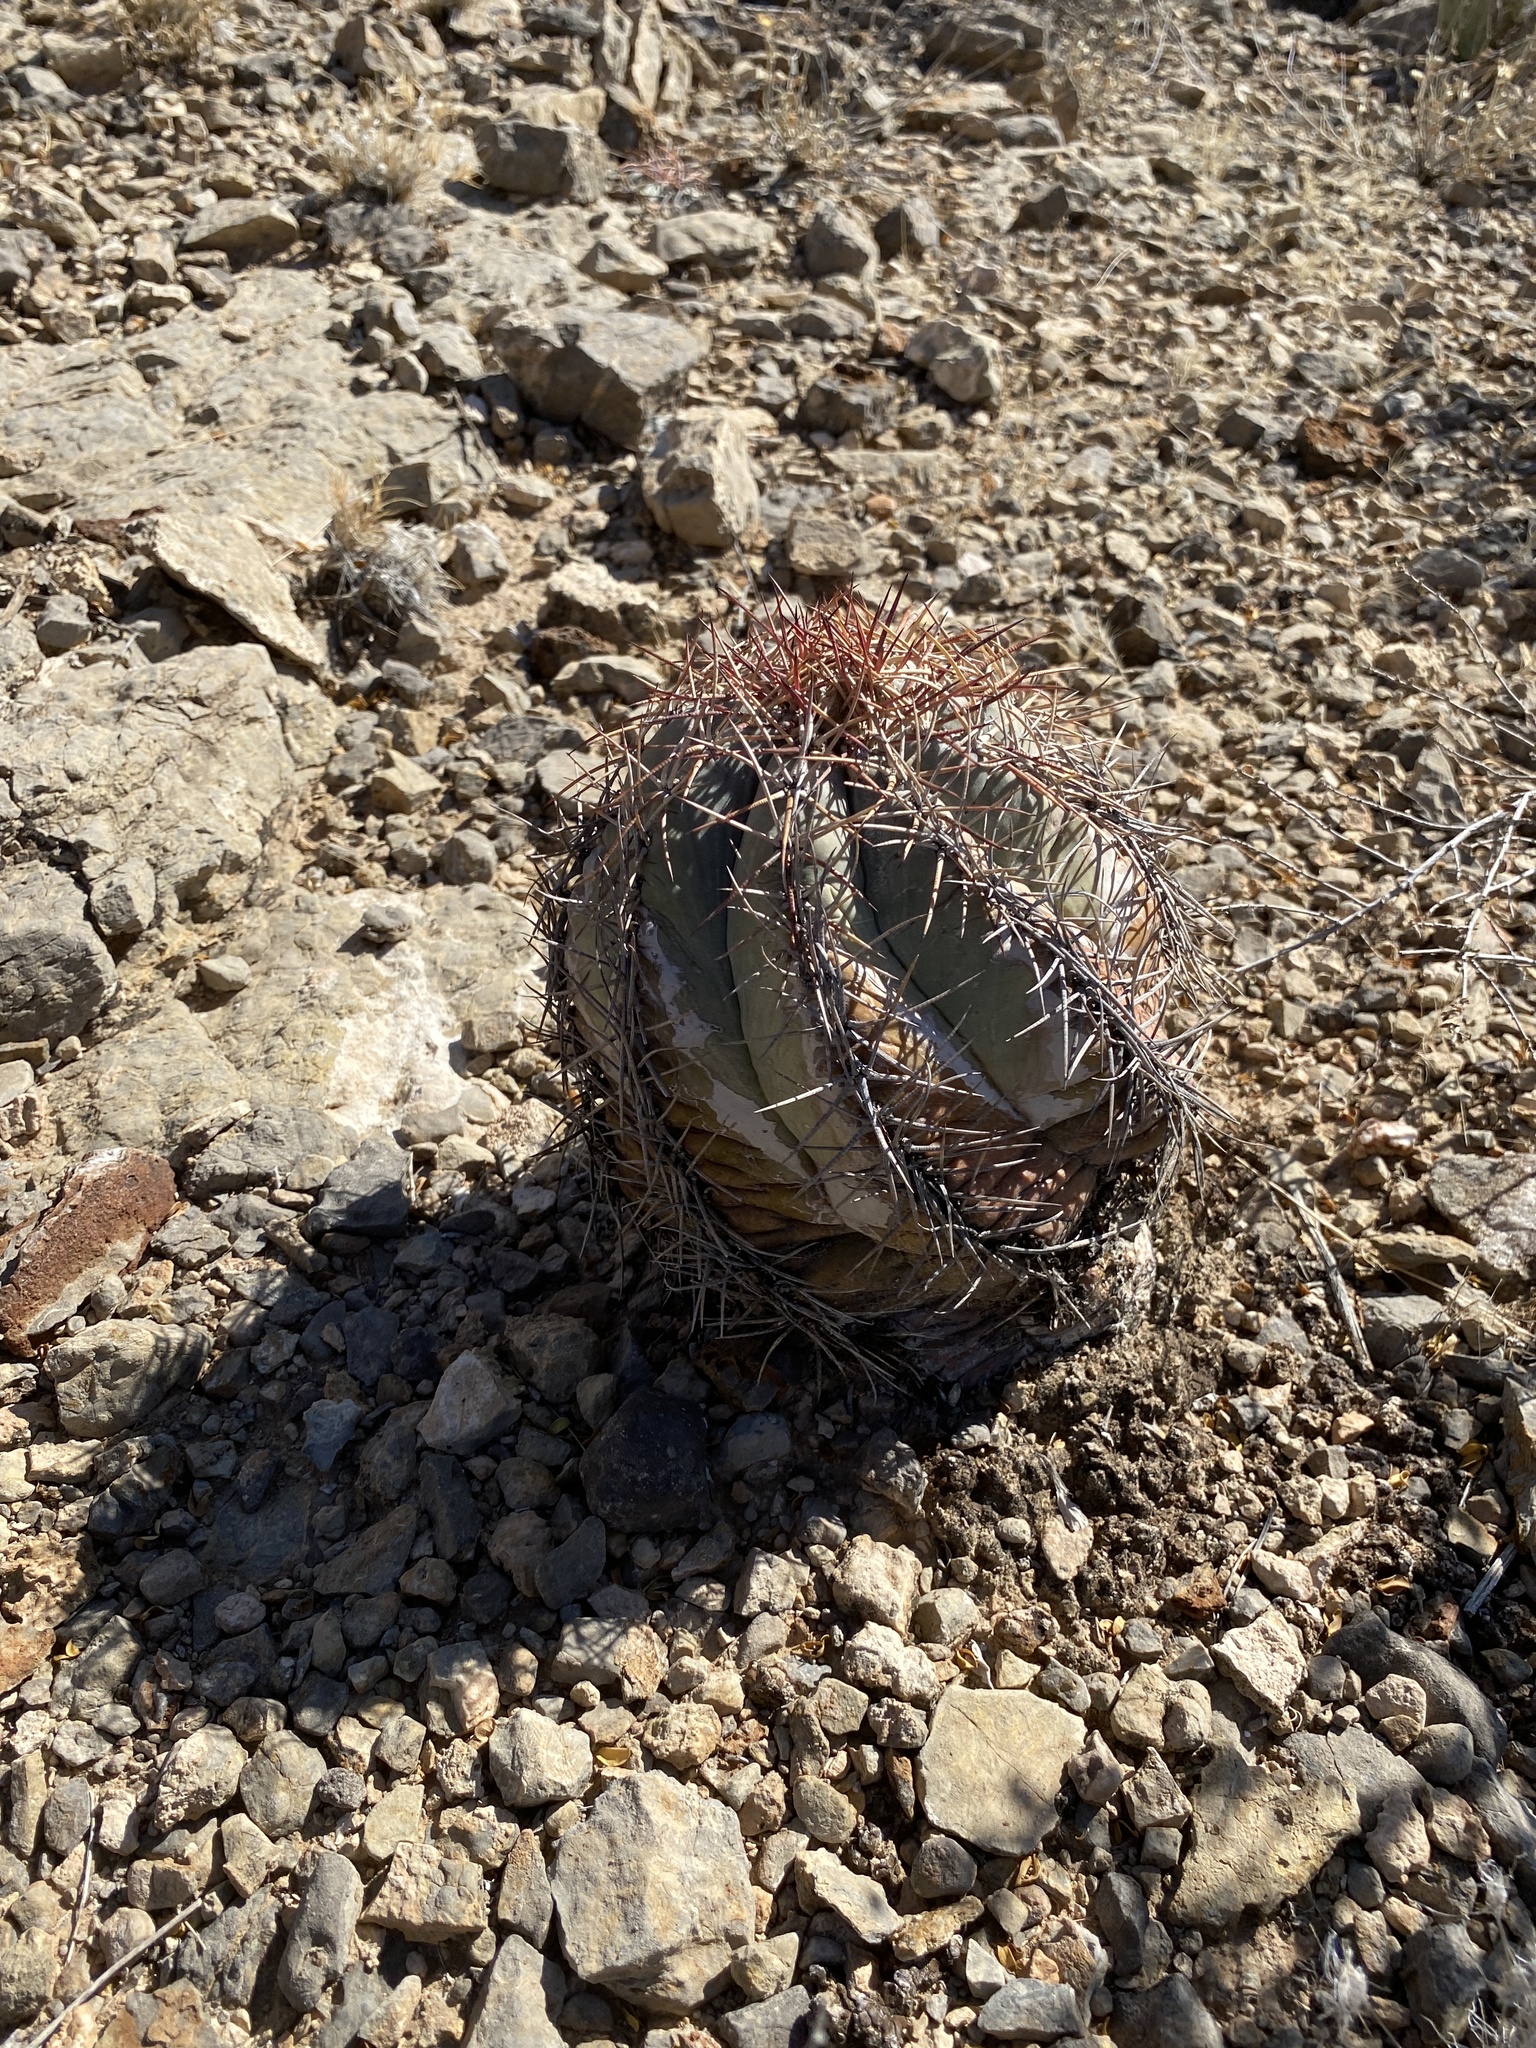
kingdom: Plantae
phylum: Tracheophyta
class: Magnoliopsida
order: Caryophyllales
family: Cactaceae
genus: Echinocactus
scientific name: Echinocactus horizonthalonius
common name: Devilshead
